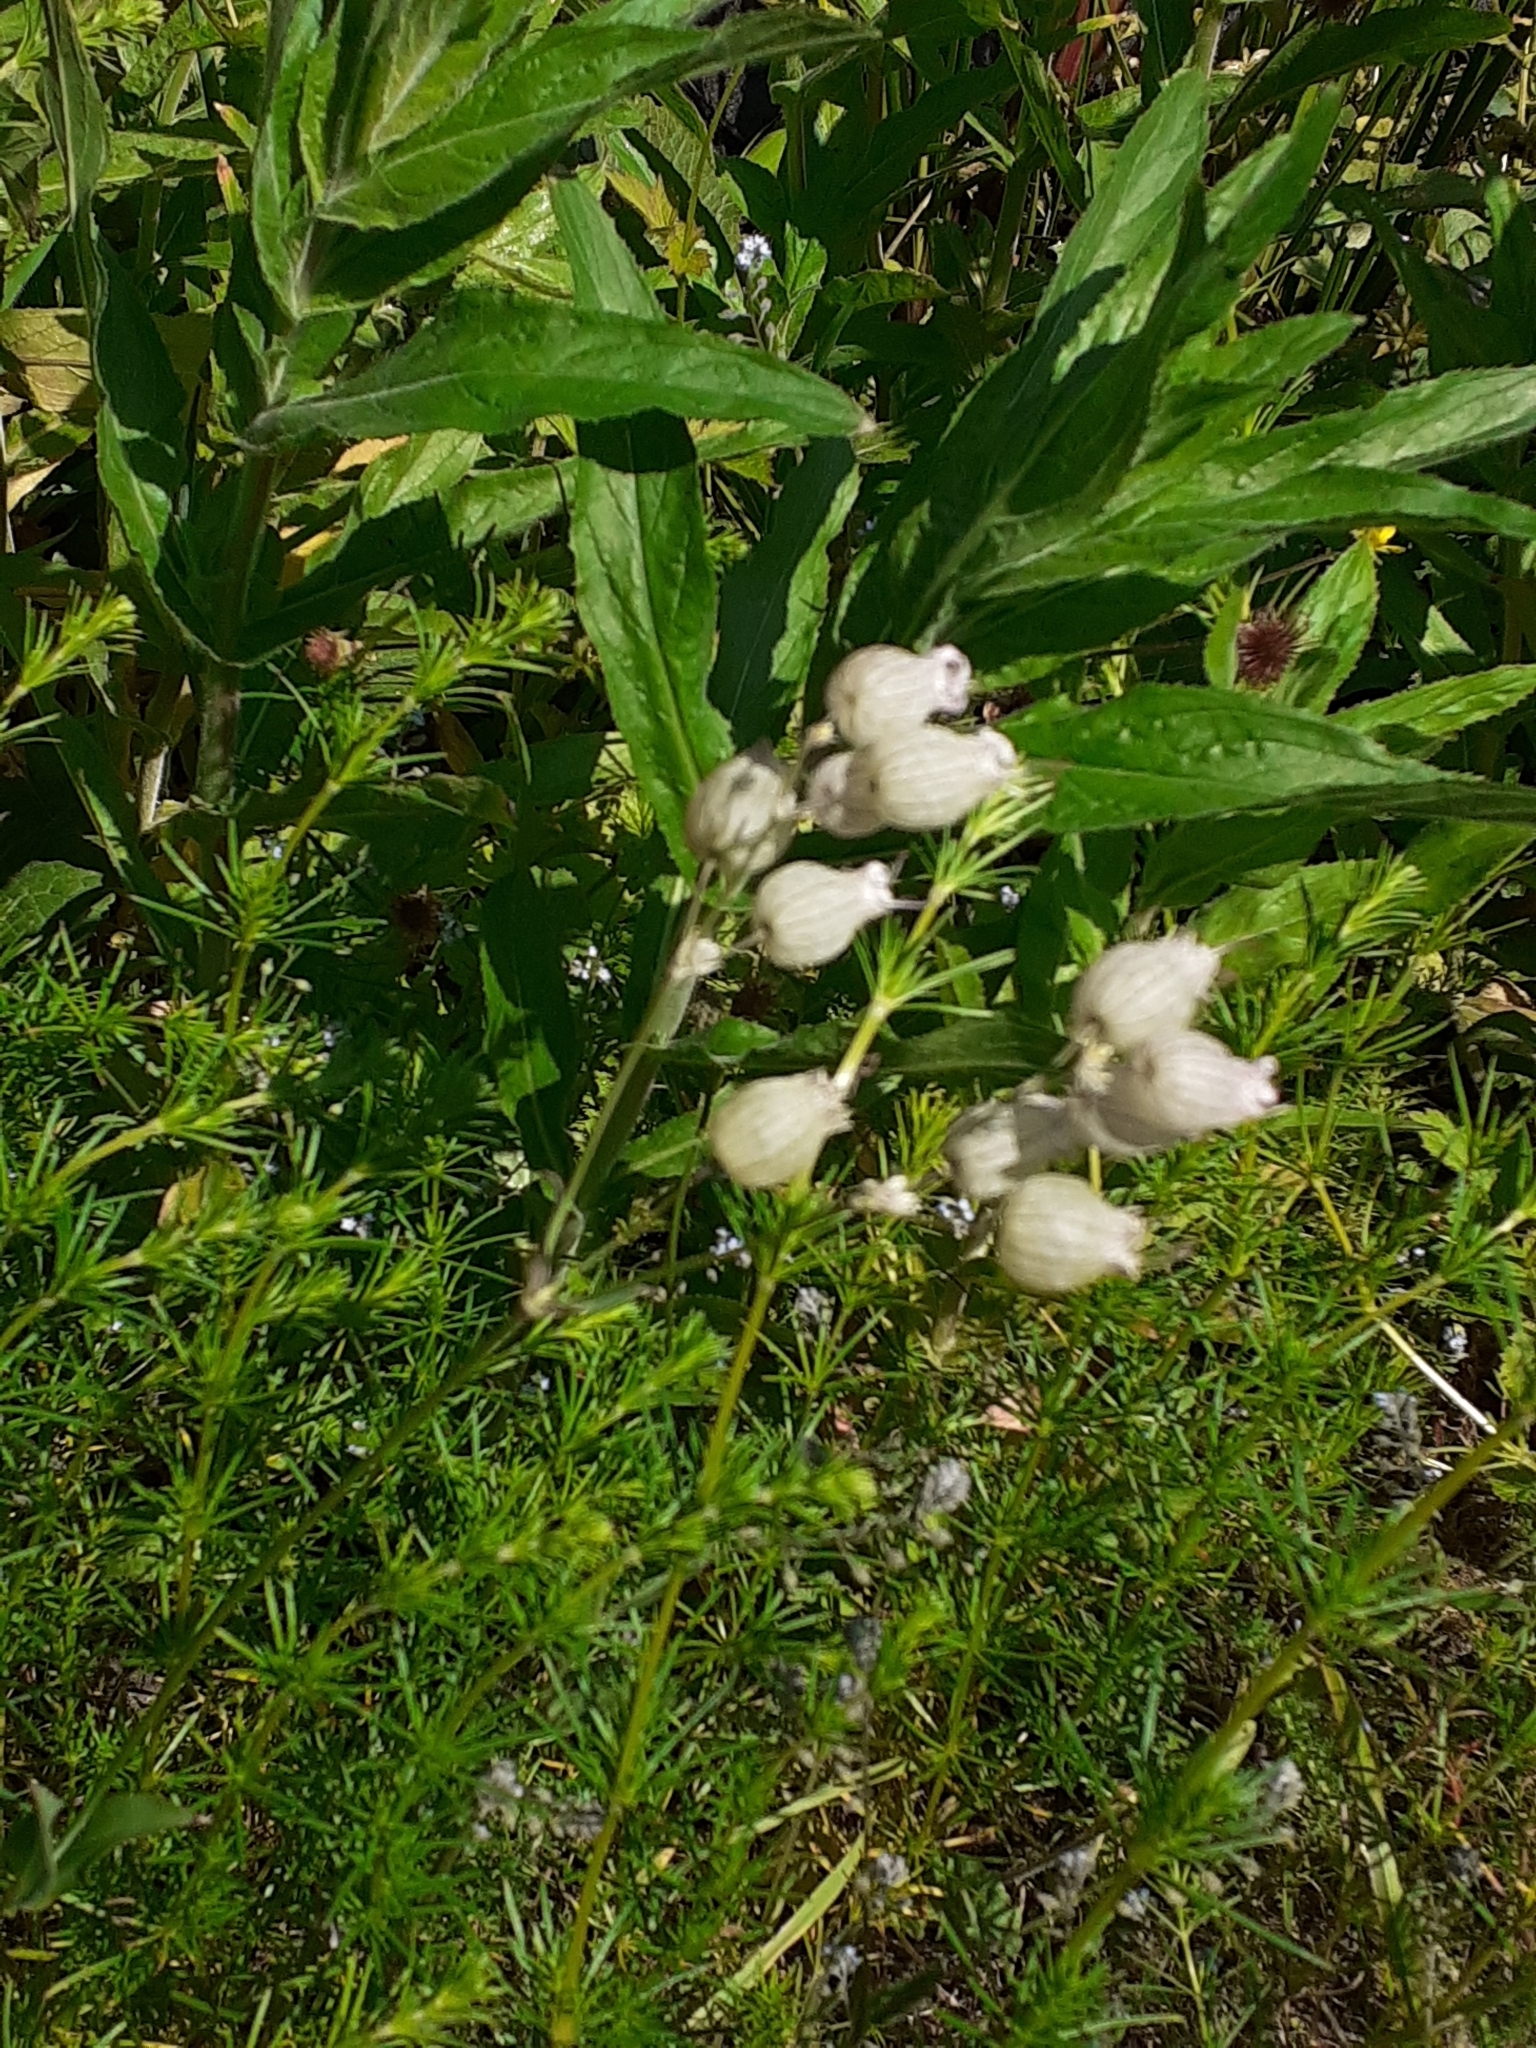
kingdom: Plantae
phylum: Tracheophyta
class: Magnoliopsida
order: Caryophyllales
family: Caryophyllaceae
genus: Silene
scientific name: Silene vulgaris
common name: Bladder campion
